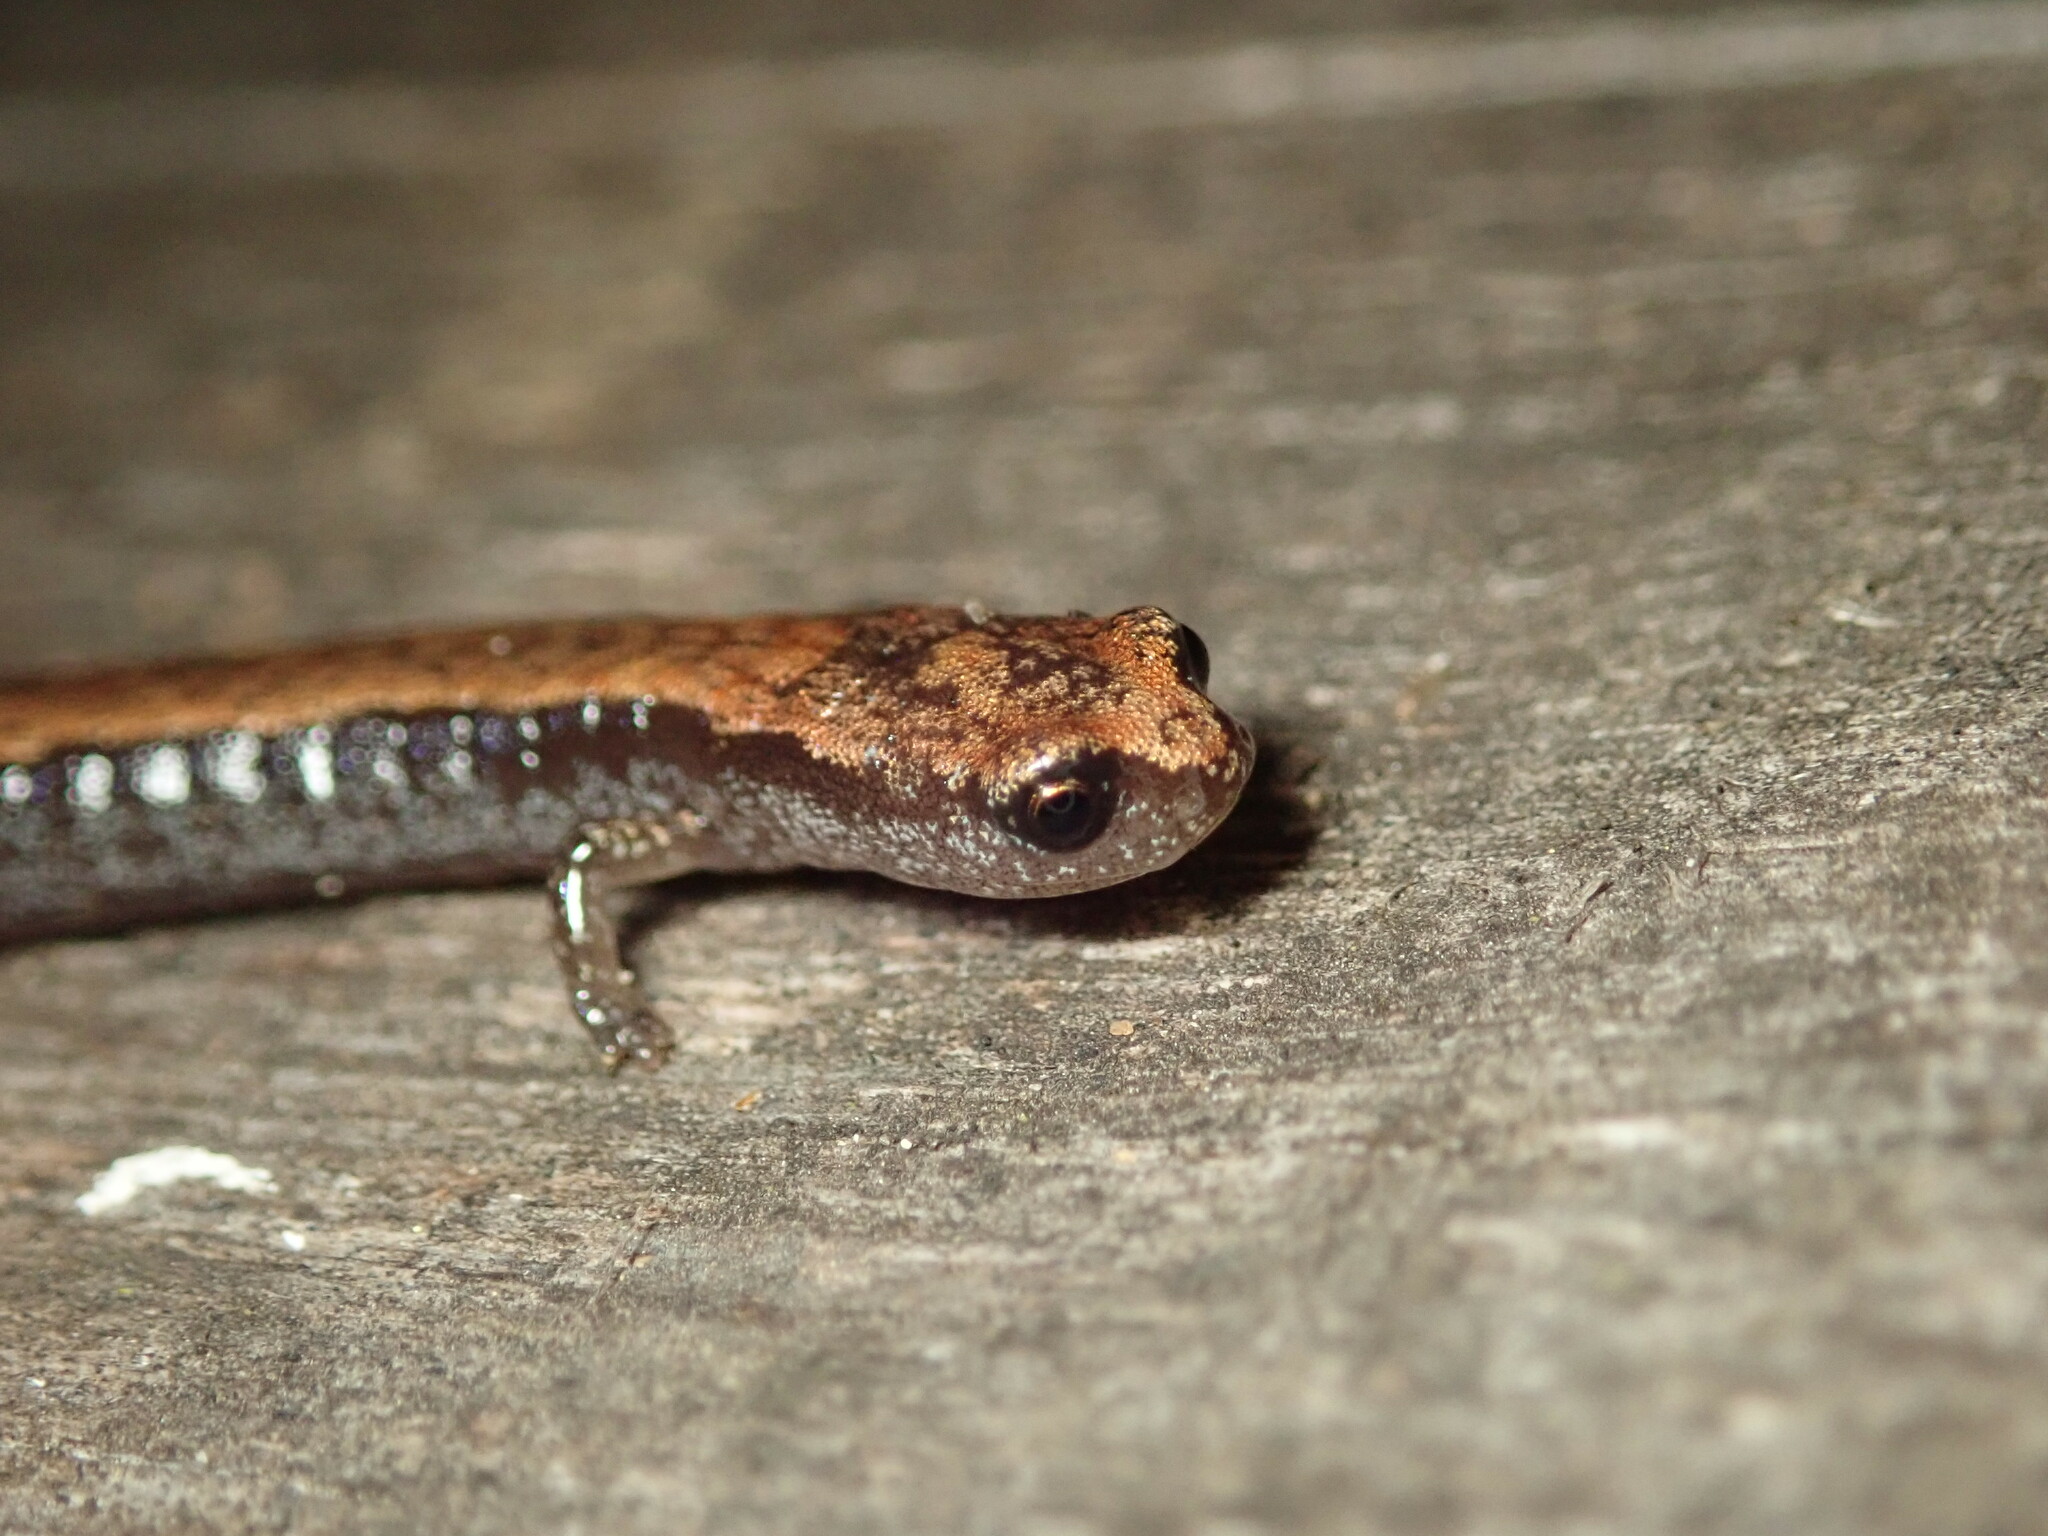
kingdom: Animalia
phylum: Chordata
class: Amphibia
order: Caudata
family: Plethodontidae
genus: Batrachoseps
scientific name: Batrachoseps attenuatus
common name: California slender salamander
